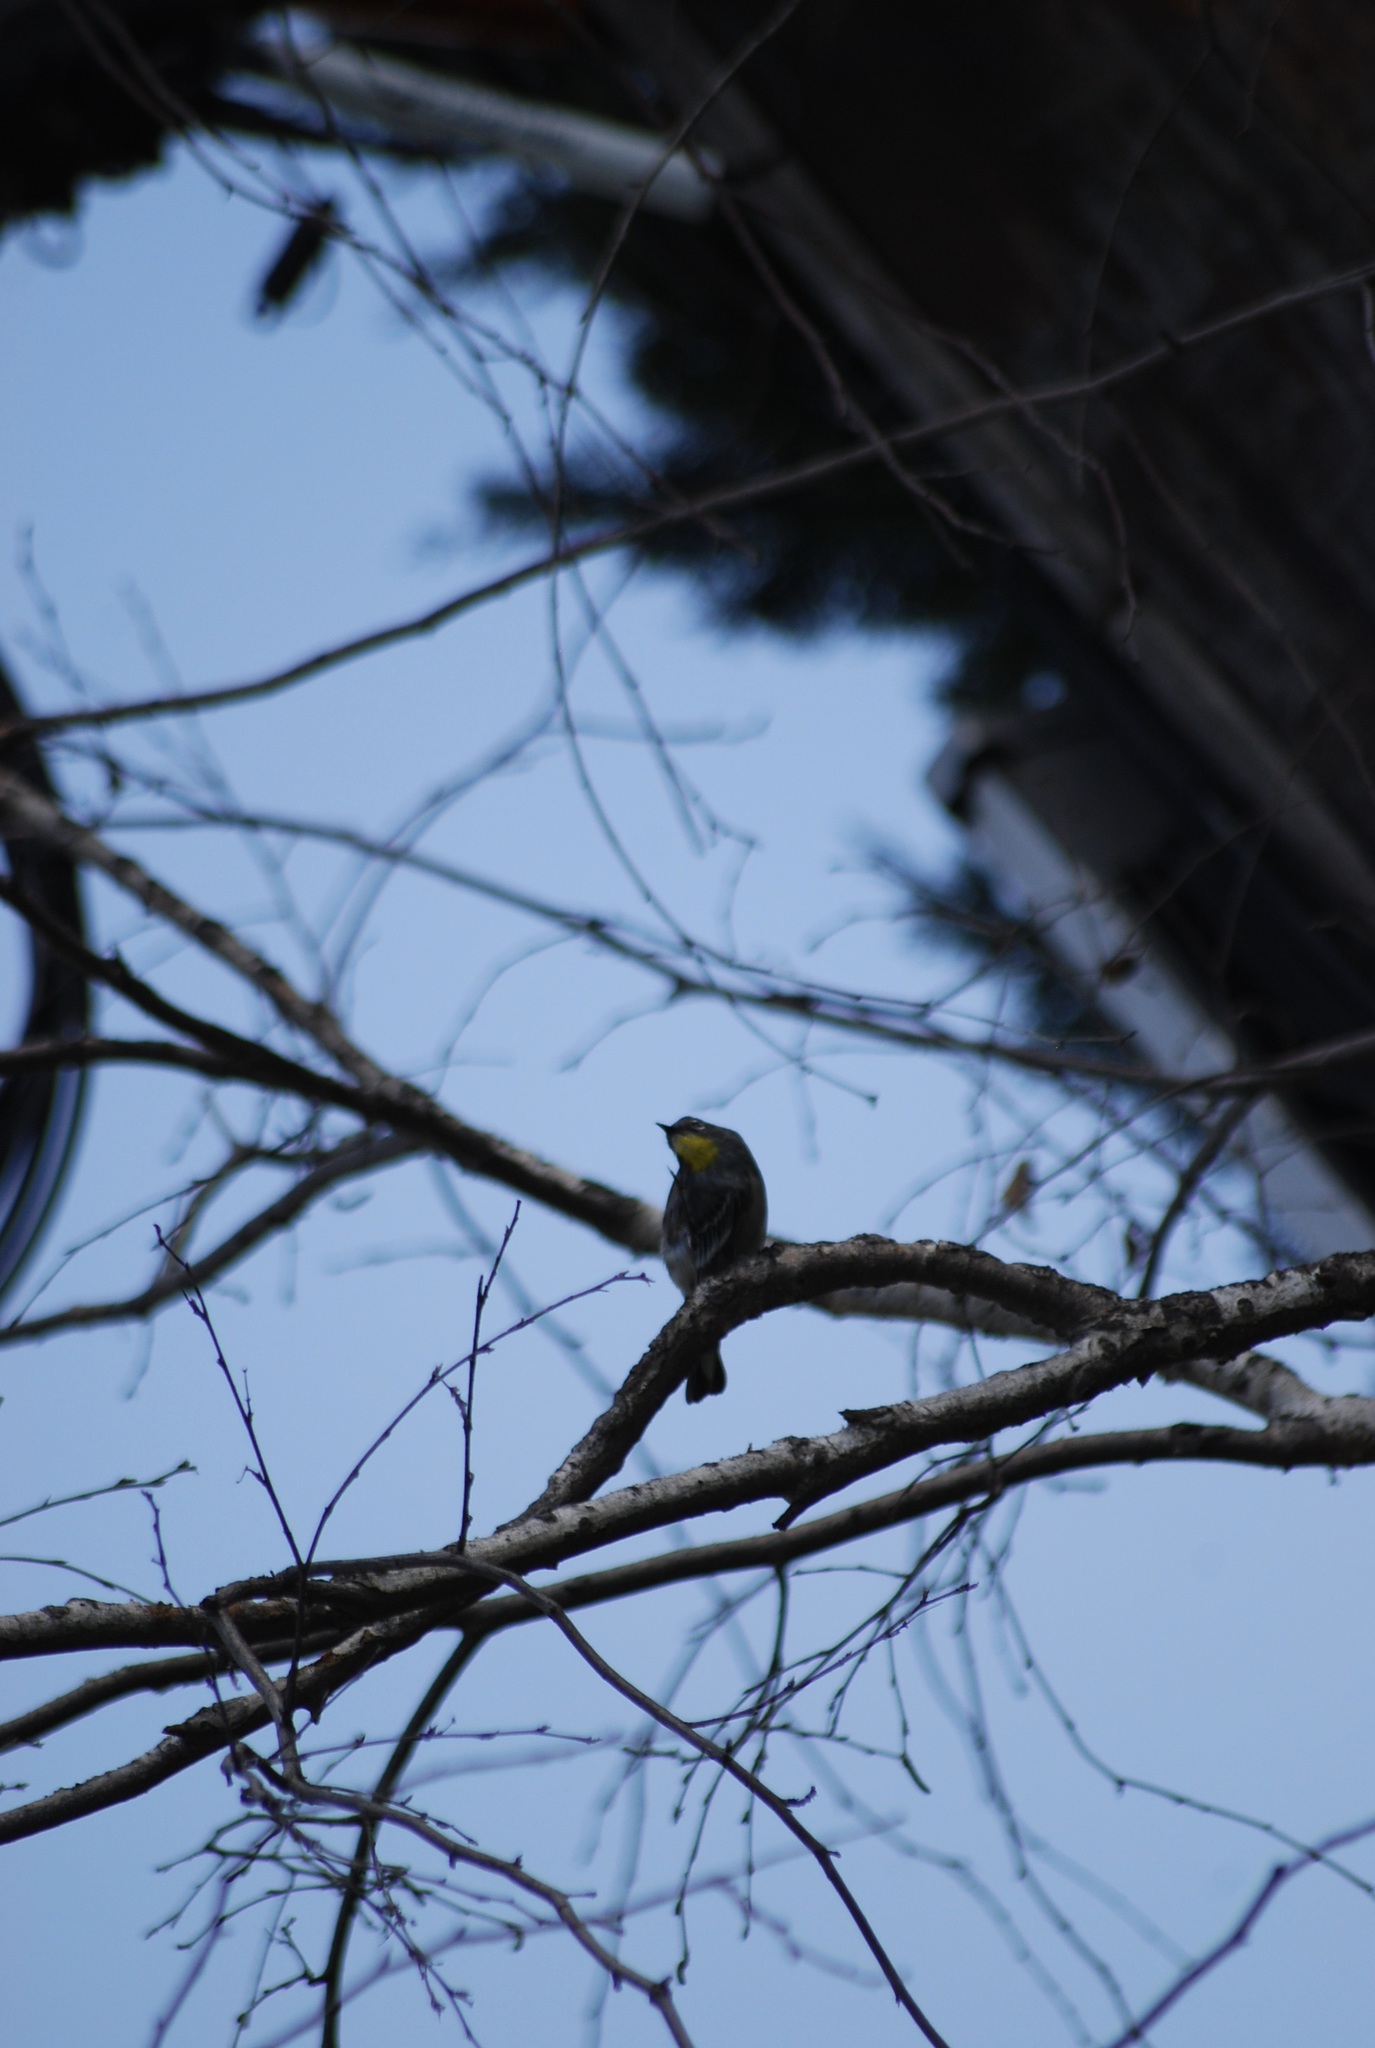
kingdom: Animalia
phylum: Chordata
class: Aves
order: Passeriformes
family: Parulidae
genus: Setophaga
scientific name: Setophaga coronata
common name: Myrtle warbler
